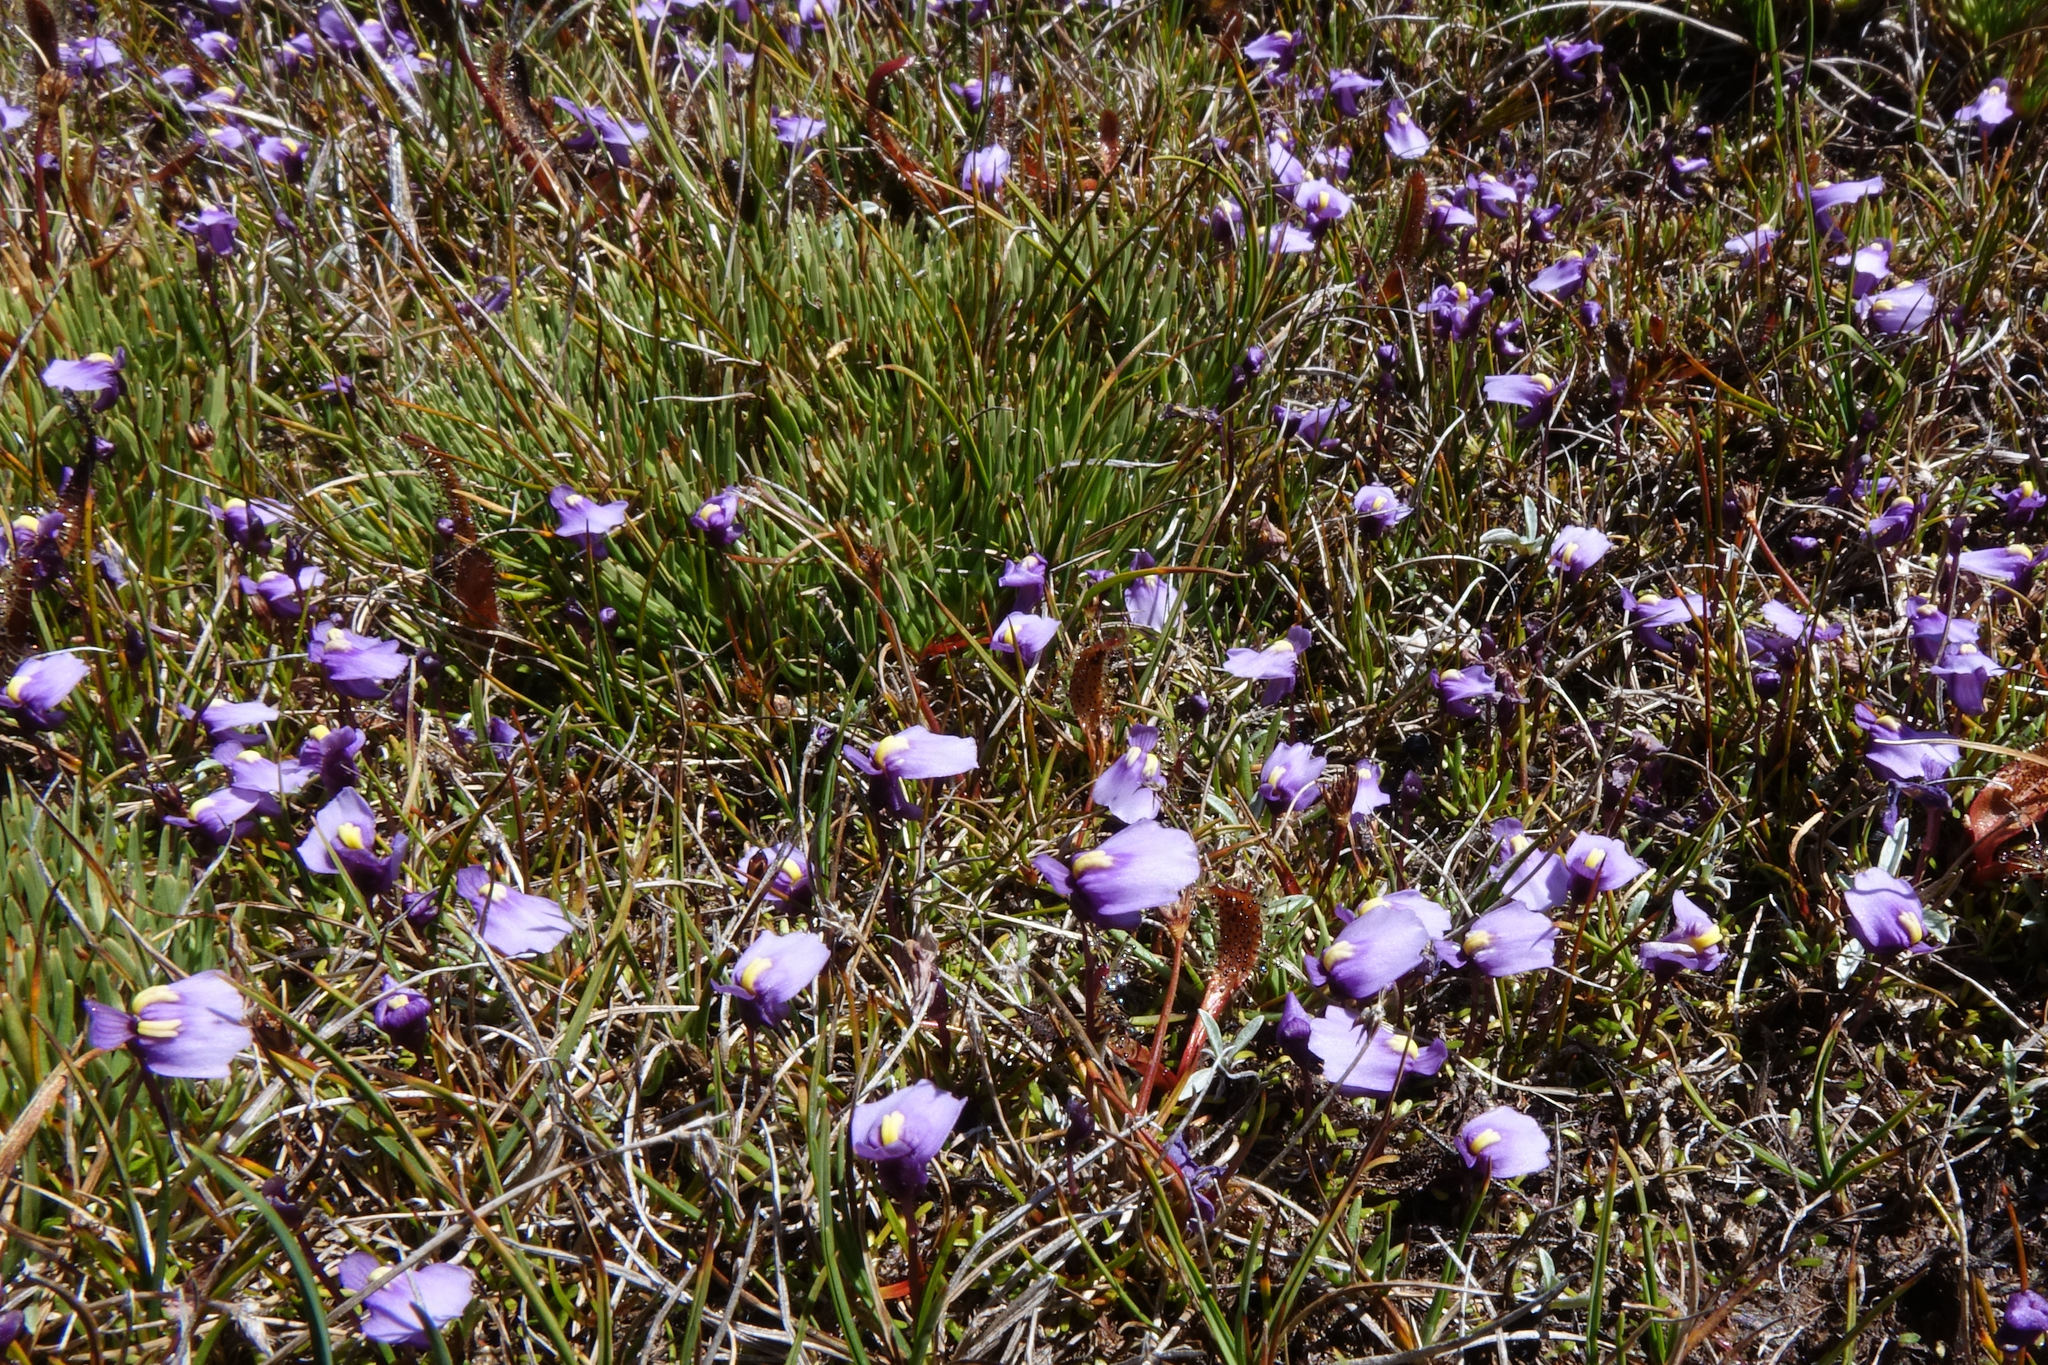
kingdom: Plantae
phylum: Tracheophyta
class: Magnoliopsida
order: Lamiales
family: Lentibulariaceae
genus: Utricularia
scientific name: Utricularia dichotoma
